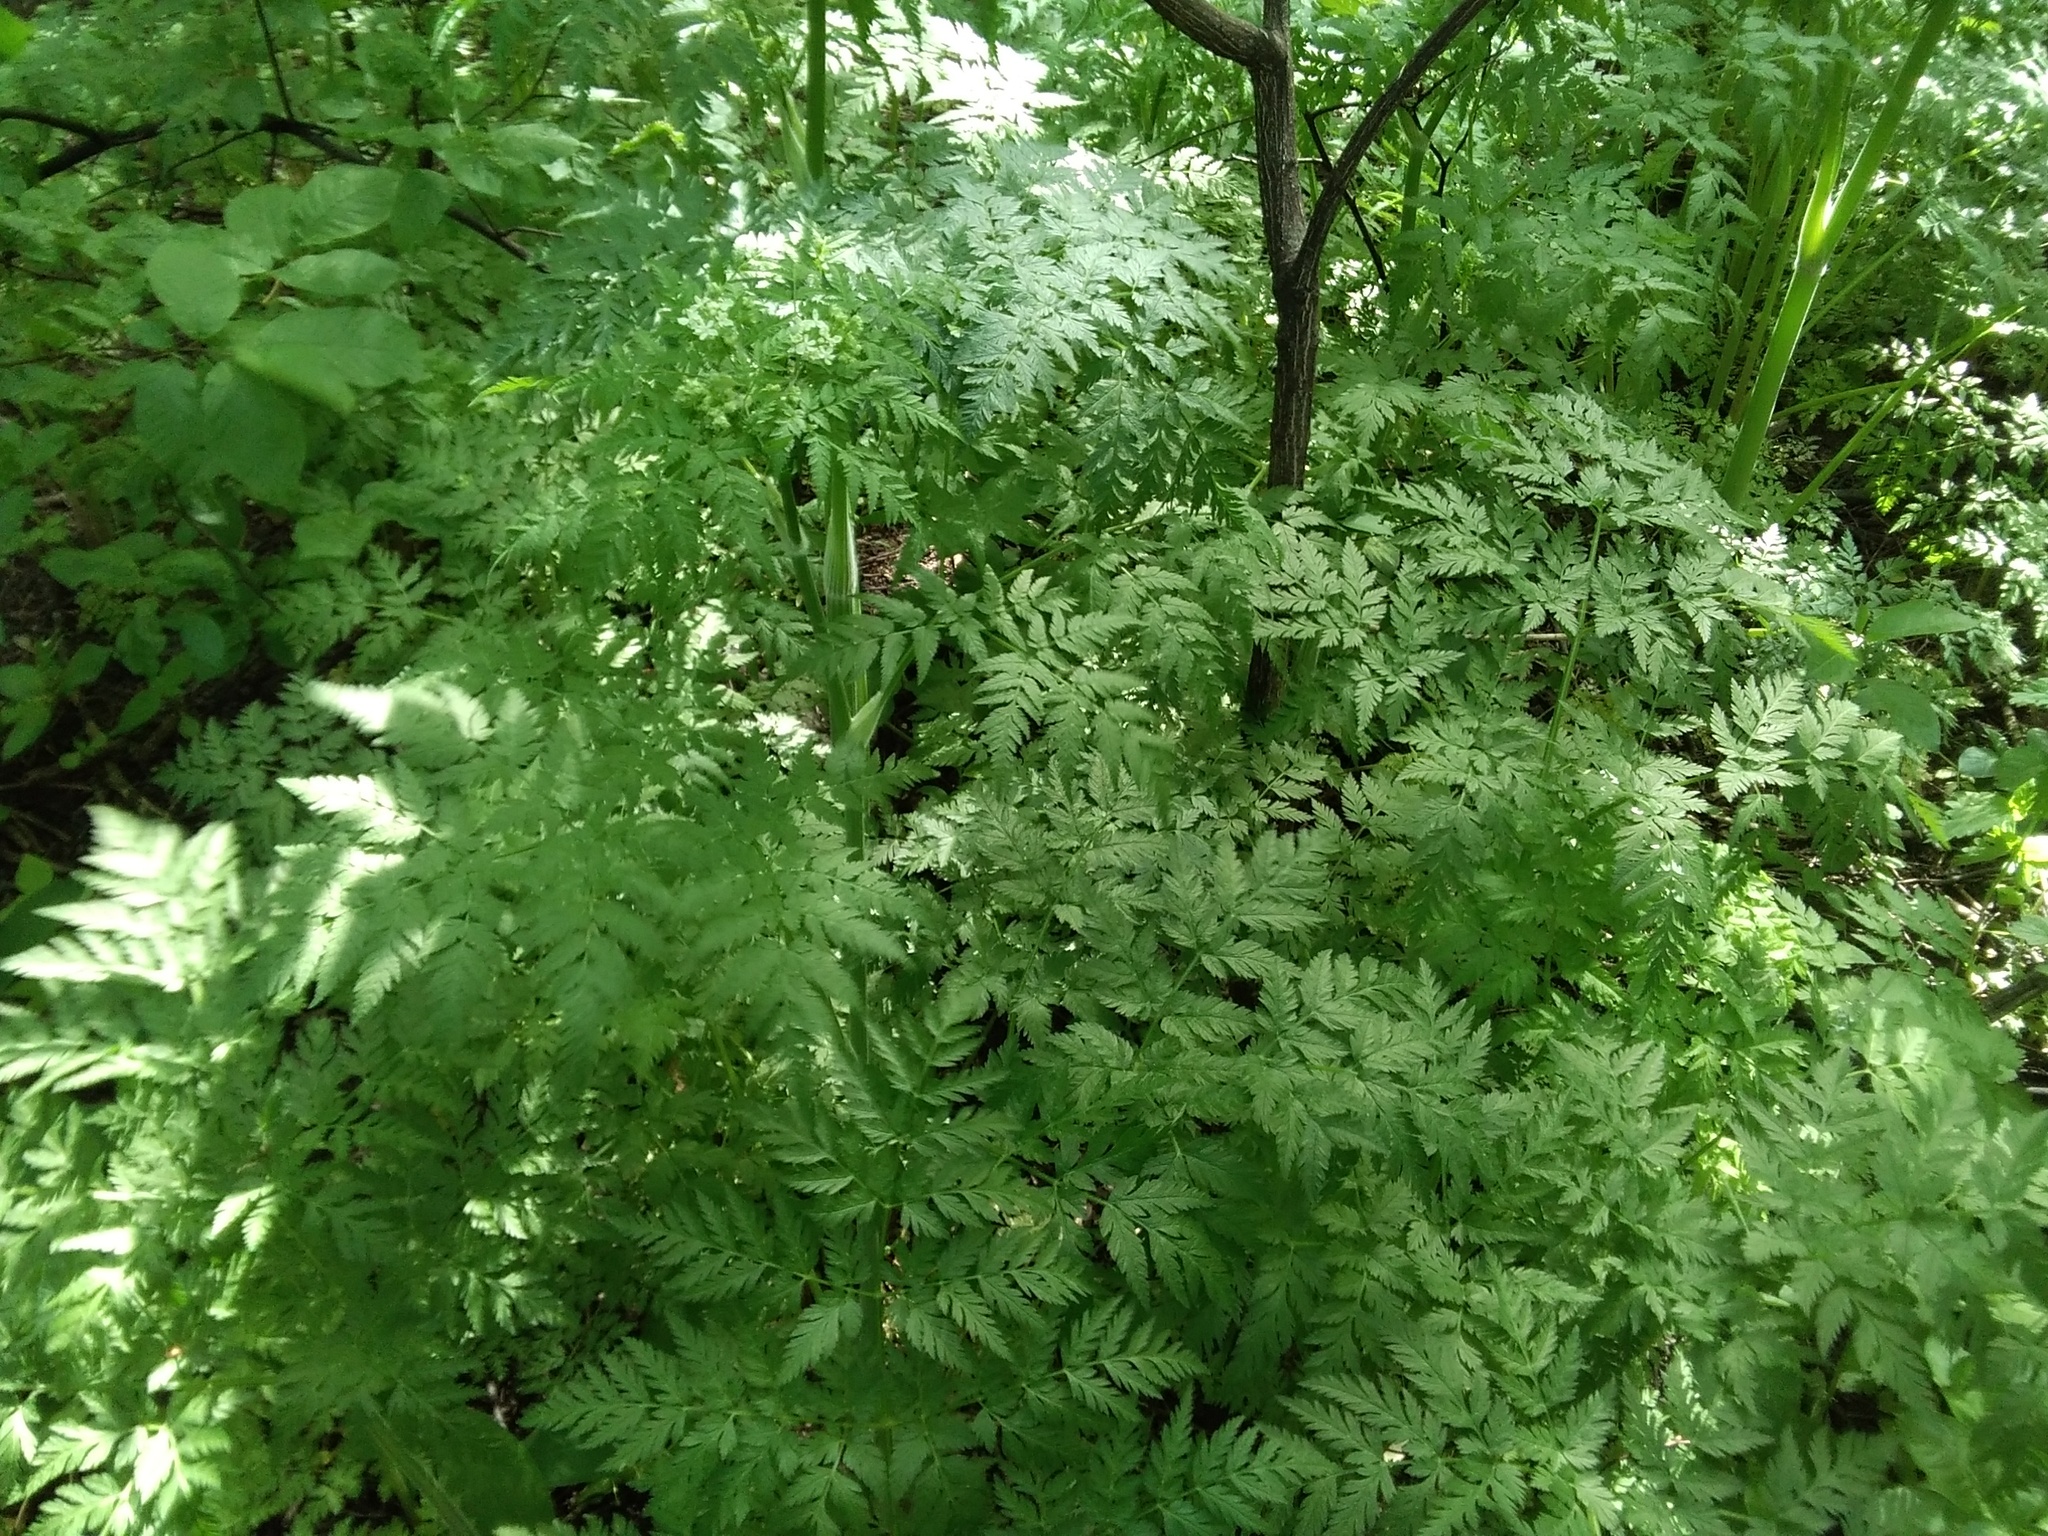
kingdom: Plantae
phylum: Tracheophyta
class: Magnoliopsida
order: Apiales
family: Apiaceae
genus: Anthriscus
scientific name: Anthriscus sylvestris
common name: Cow parsley
